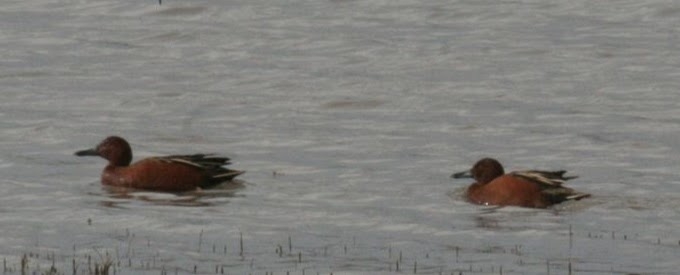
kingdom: Animalia
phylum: Chordata
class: Aves
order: Anseriformes
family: Anatidae
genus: Spatula
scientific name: Spatula cyanoptera
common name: Cinnamon teal
